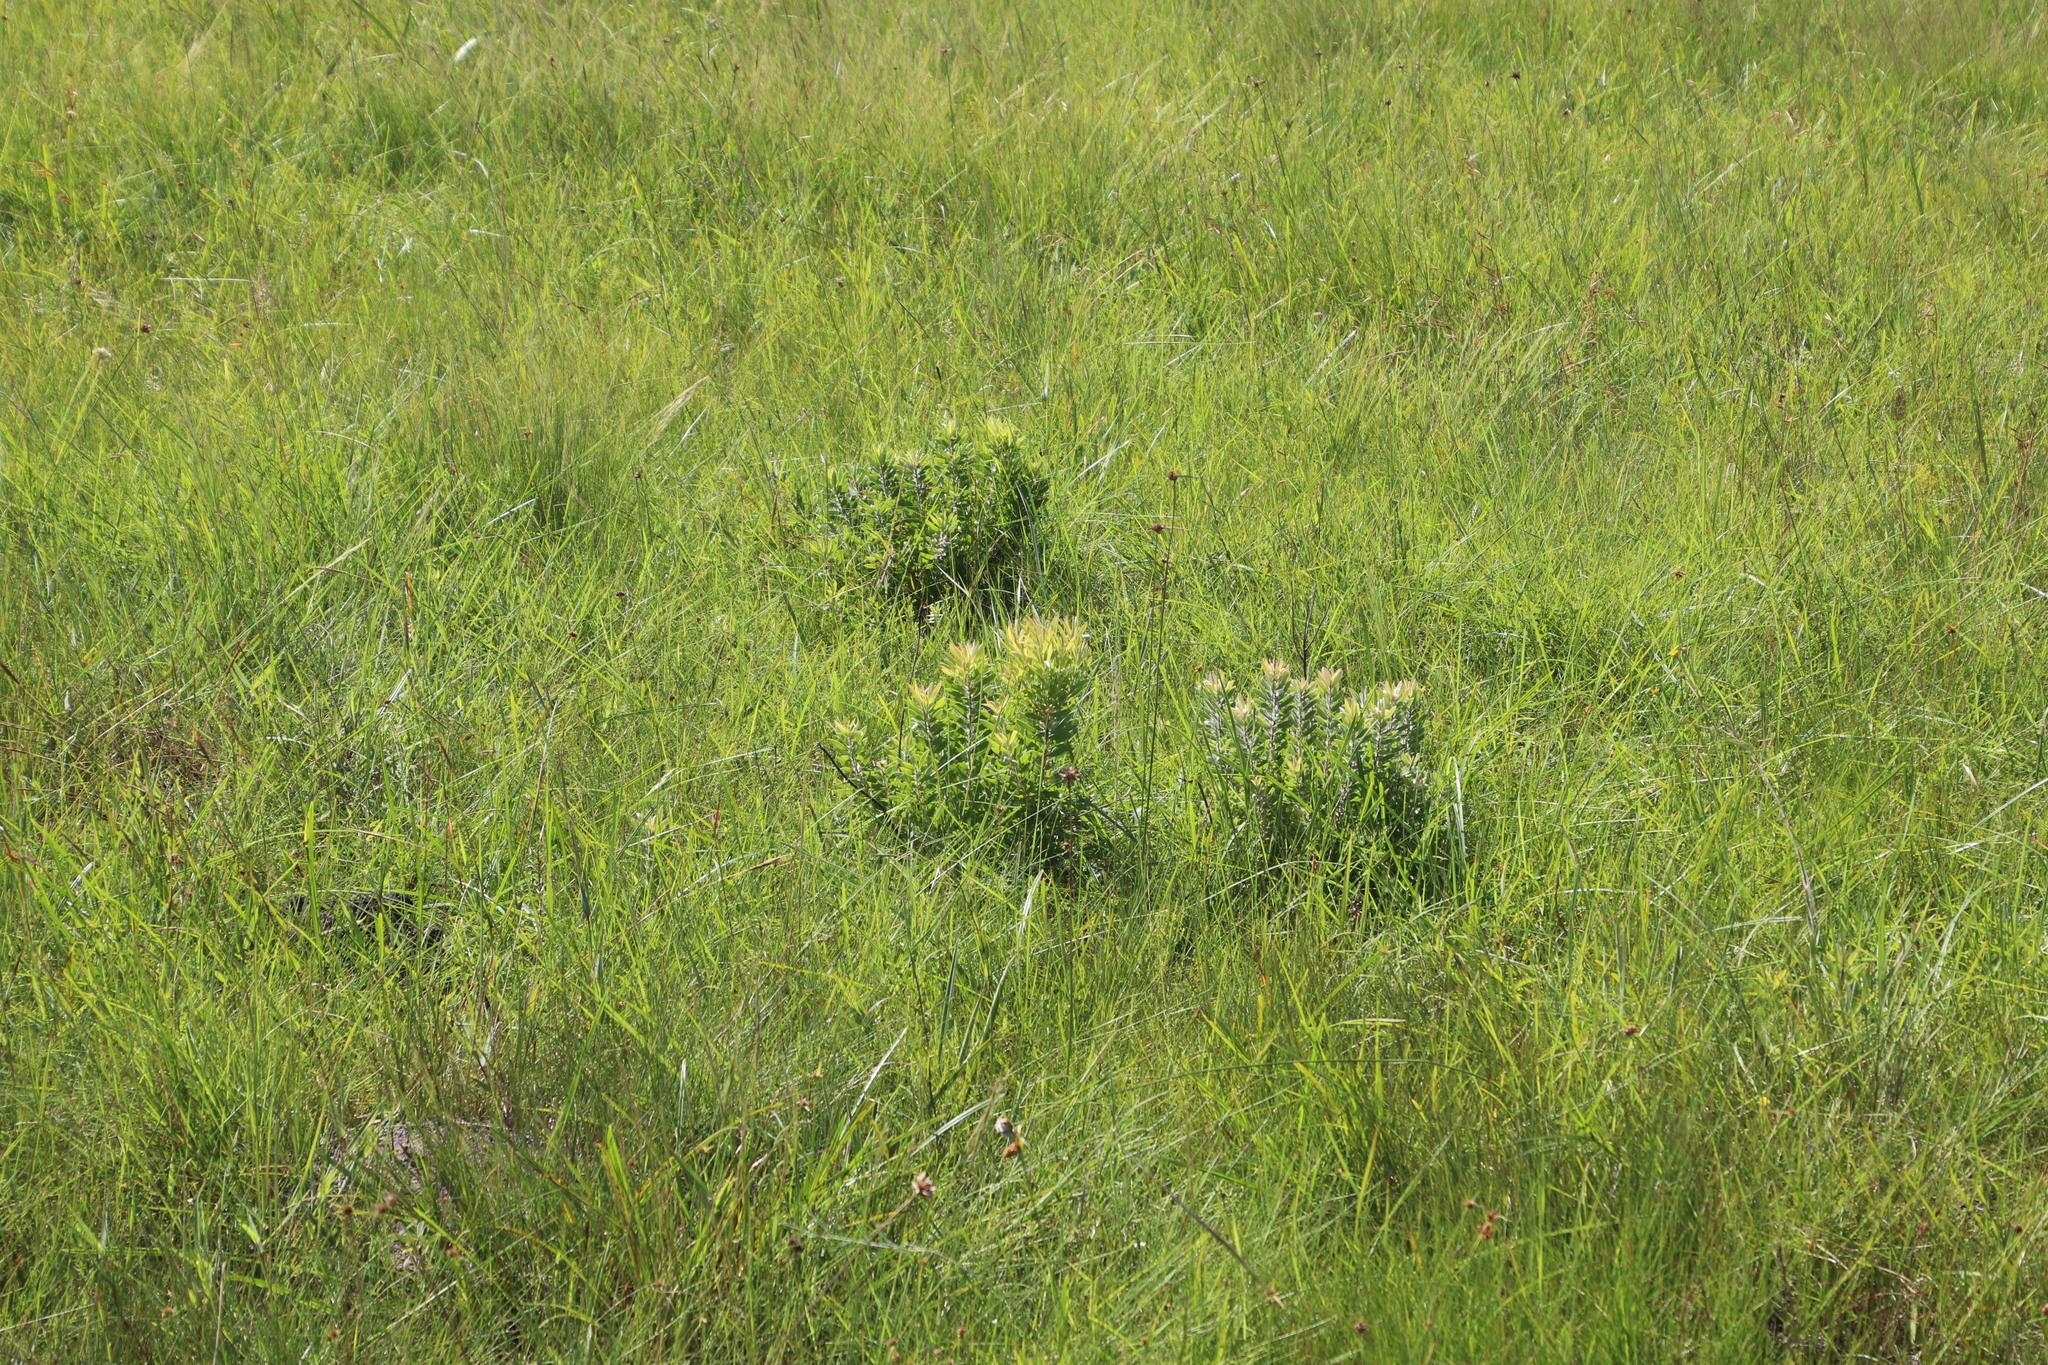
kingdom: Plantae
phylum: Tracheophyta
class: Magnoliopsida
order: Proteales
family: Proteaceae
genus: Leucadendron
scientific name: Leucadendron spissifolium
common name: Spear-leaf conebush
